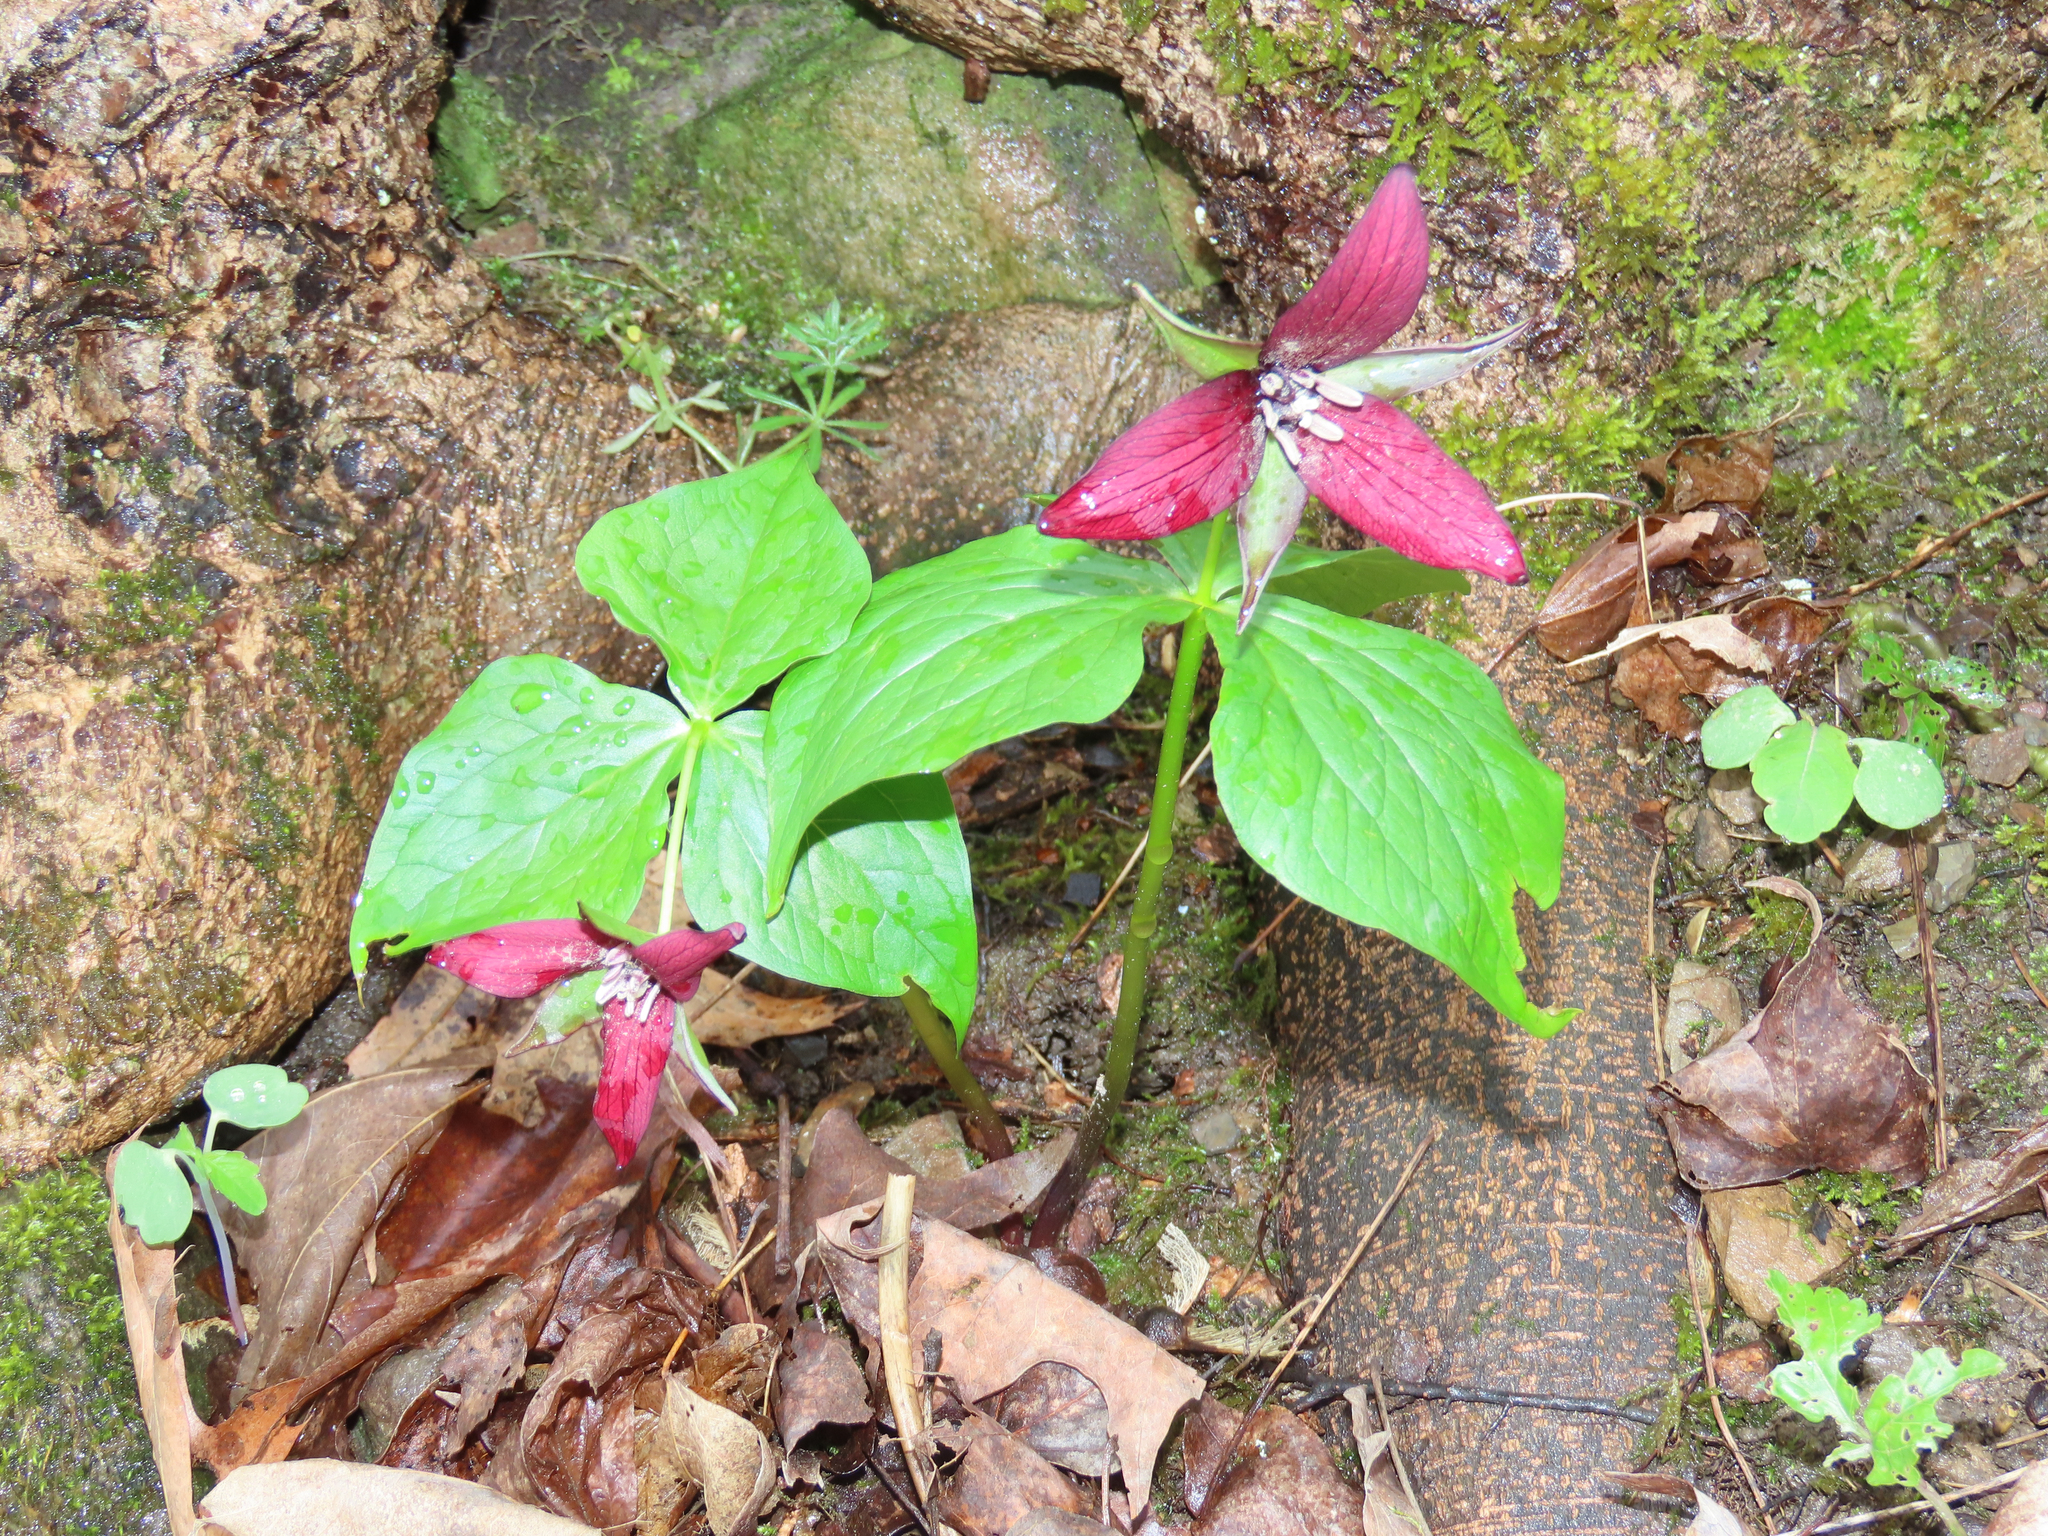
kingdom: Plantae
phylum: Tracheophyta
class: Liliopsida
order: Liliales
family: Melanthiaceae
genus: Trillium
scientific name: Trillium erectum
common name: Purple trillium
